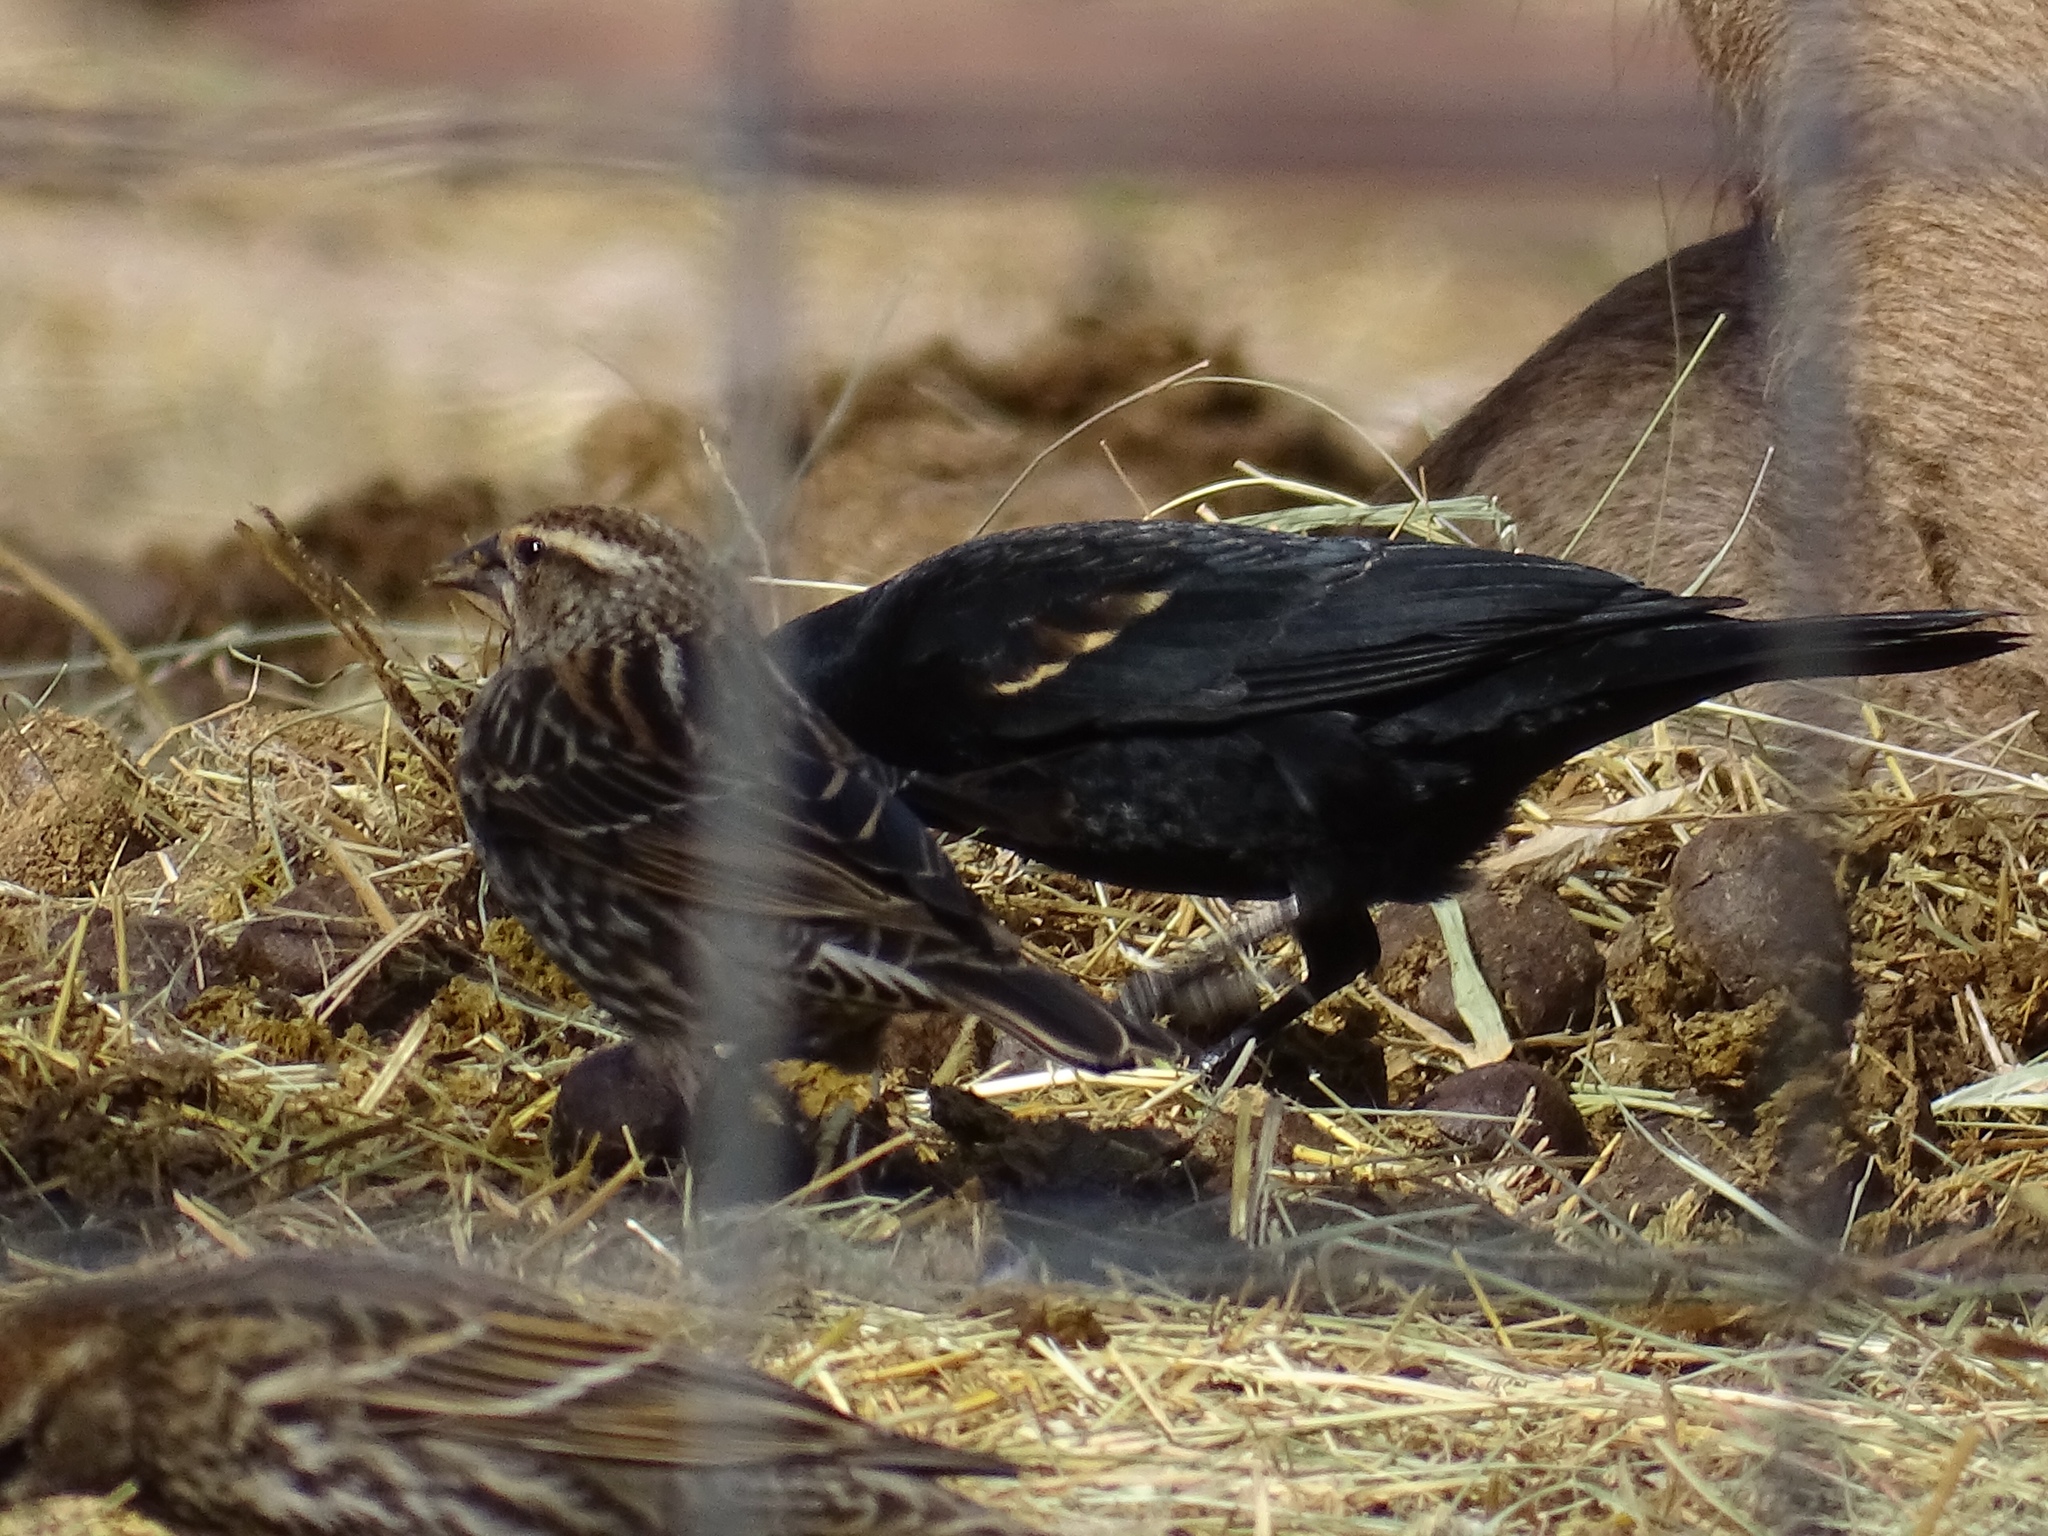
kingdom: Animalia
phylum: Chordata
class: Aves
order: Passeriformes
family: Icteridae
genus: Agelaius
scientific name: Agelaius phoeniceus
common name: Red-winged blackbird
